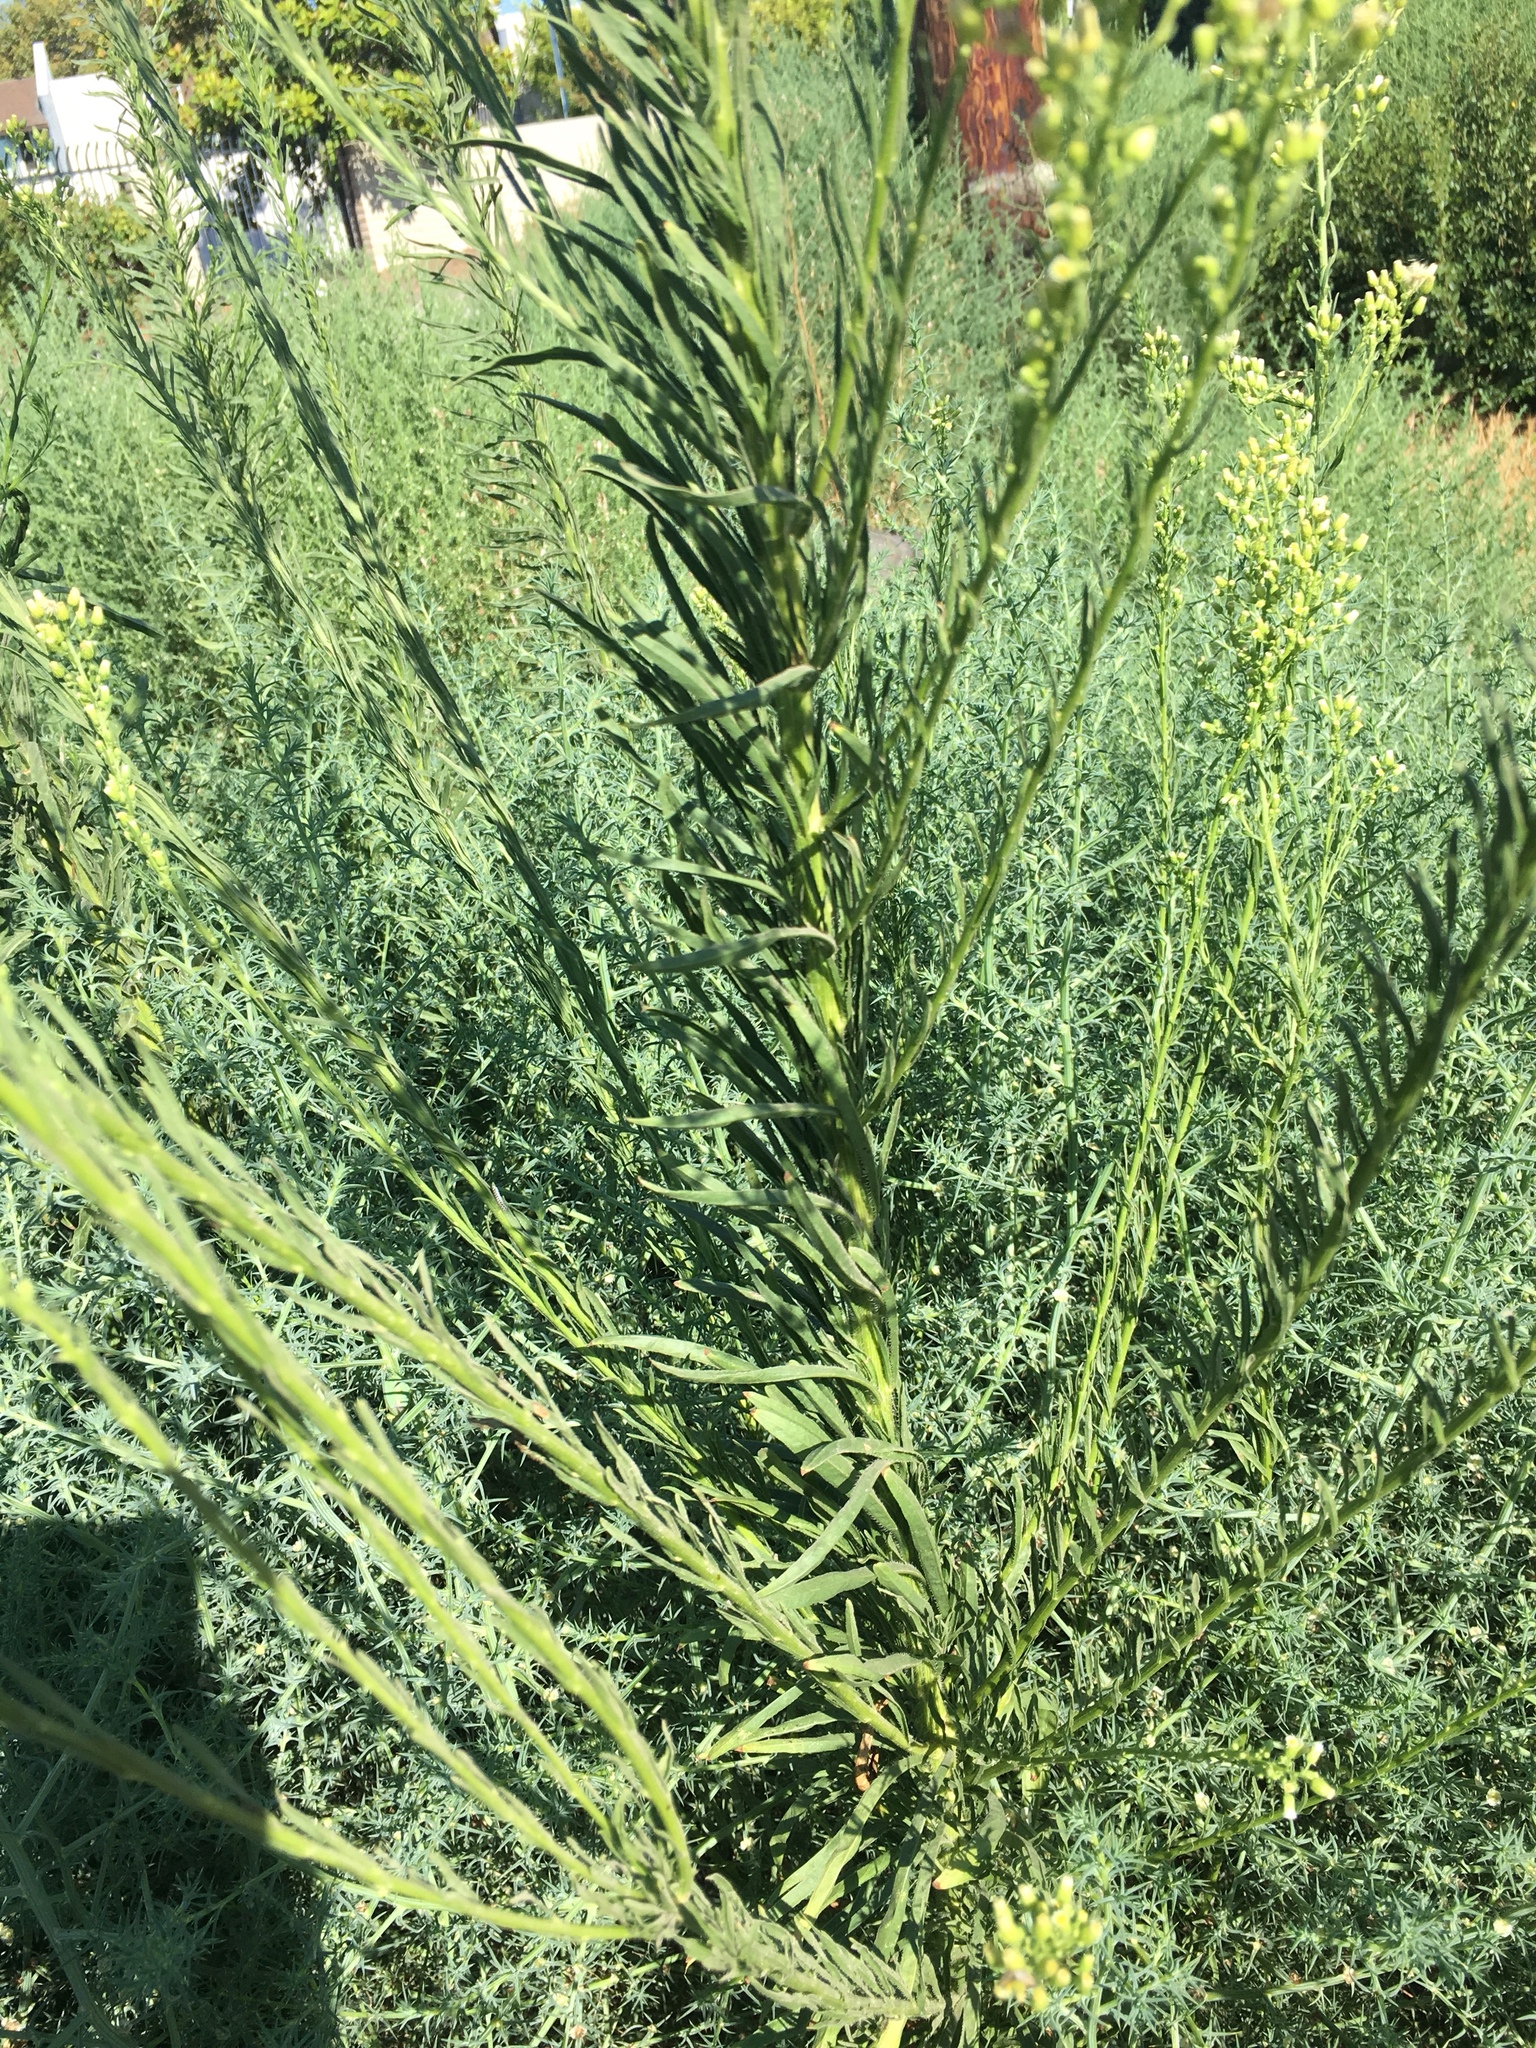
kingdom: Plantae
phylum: Tracheophyta
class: Magnoliopsida
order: Asterales
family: Asteraceae
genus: Erigeron
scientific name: Erigeron canadensis
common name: Canadian fleabane
